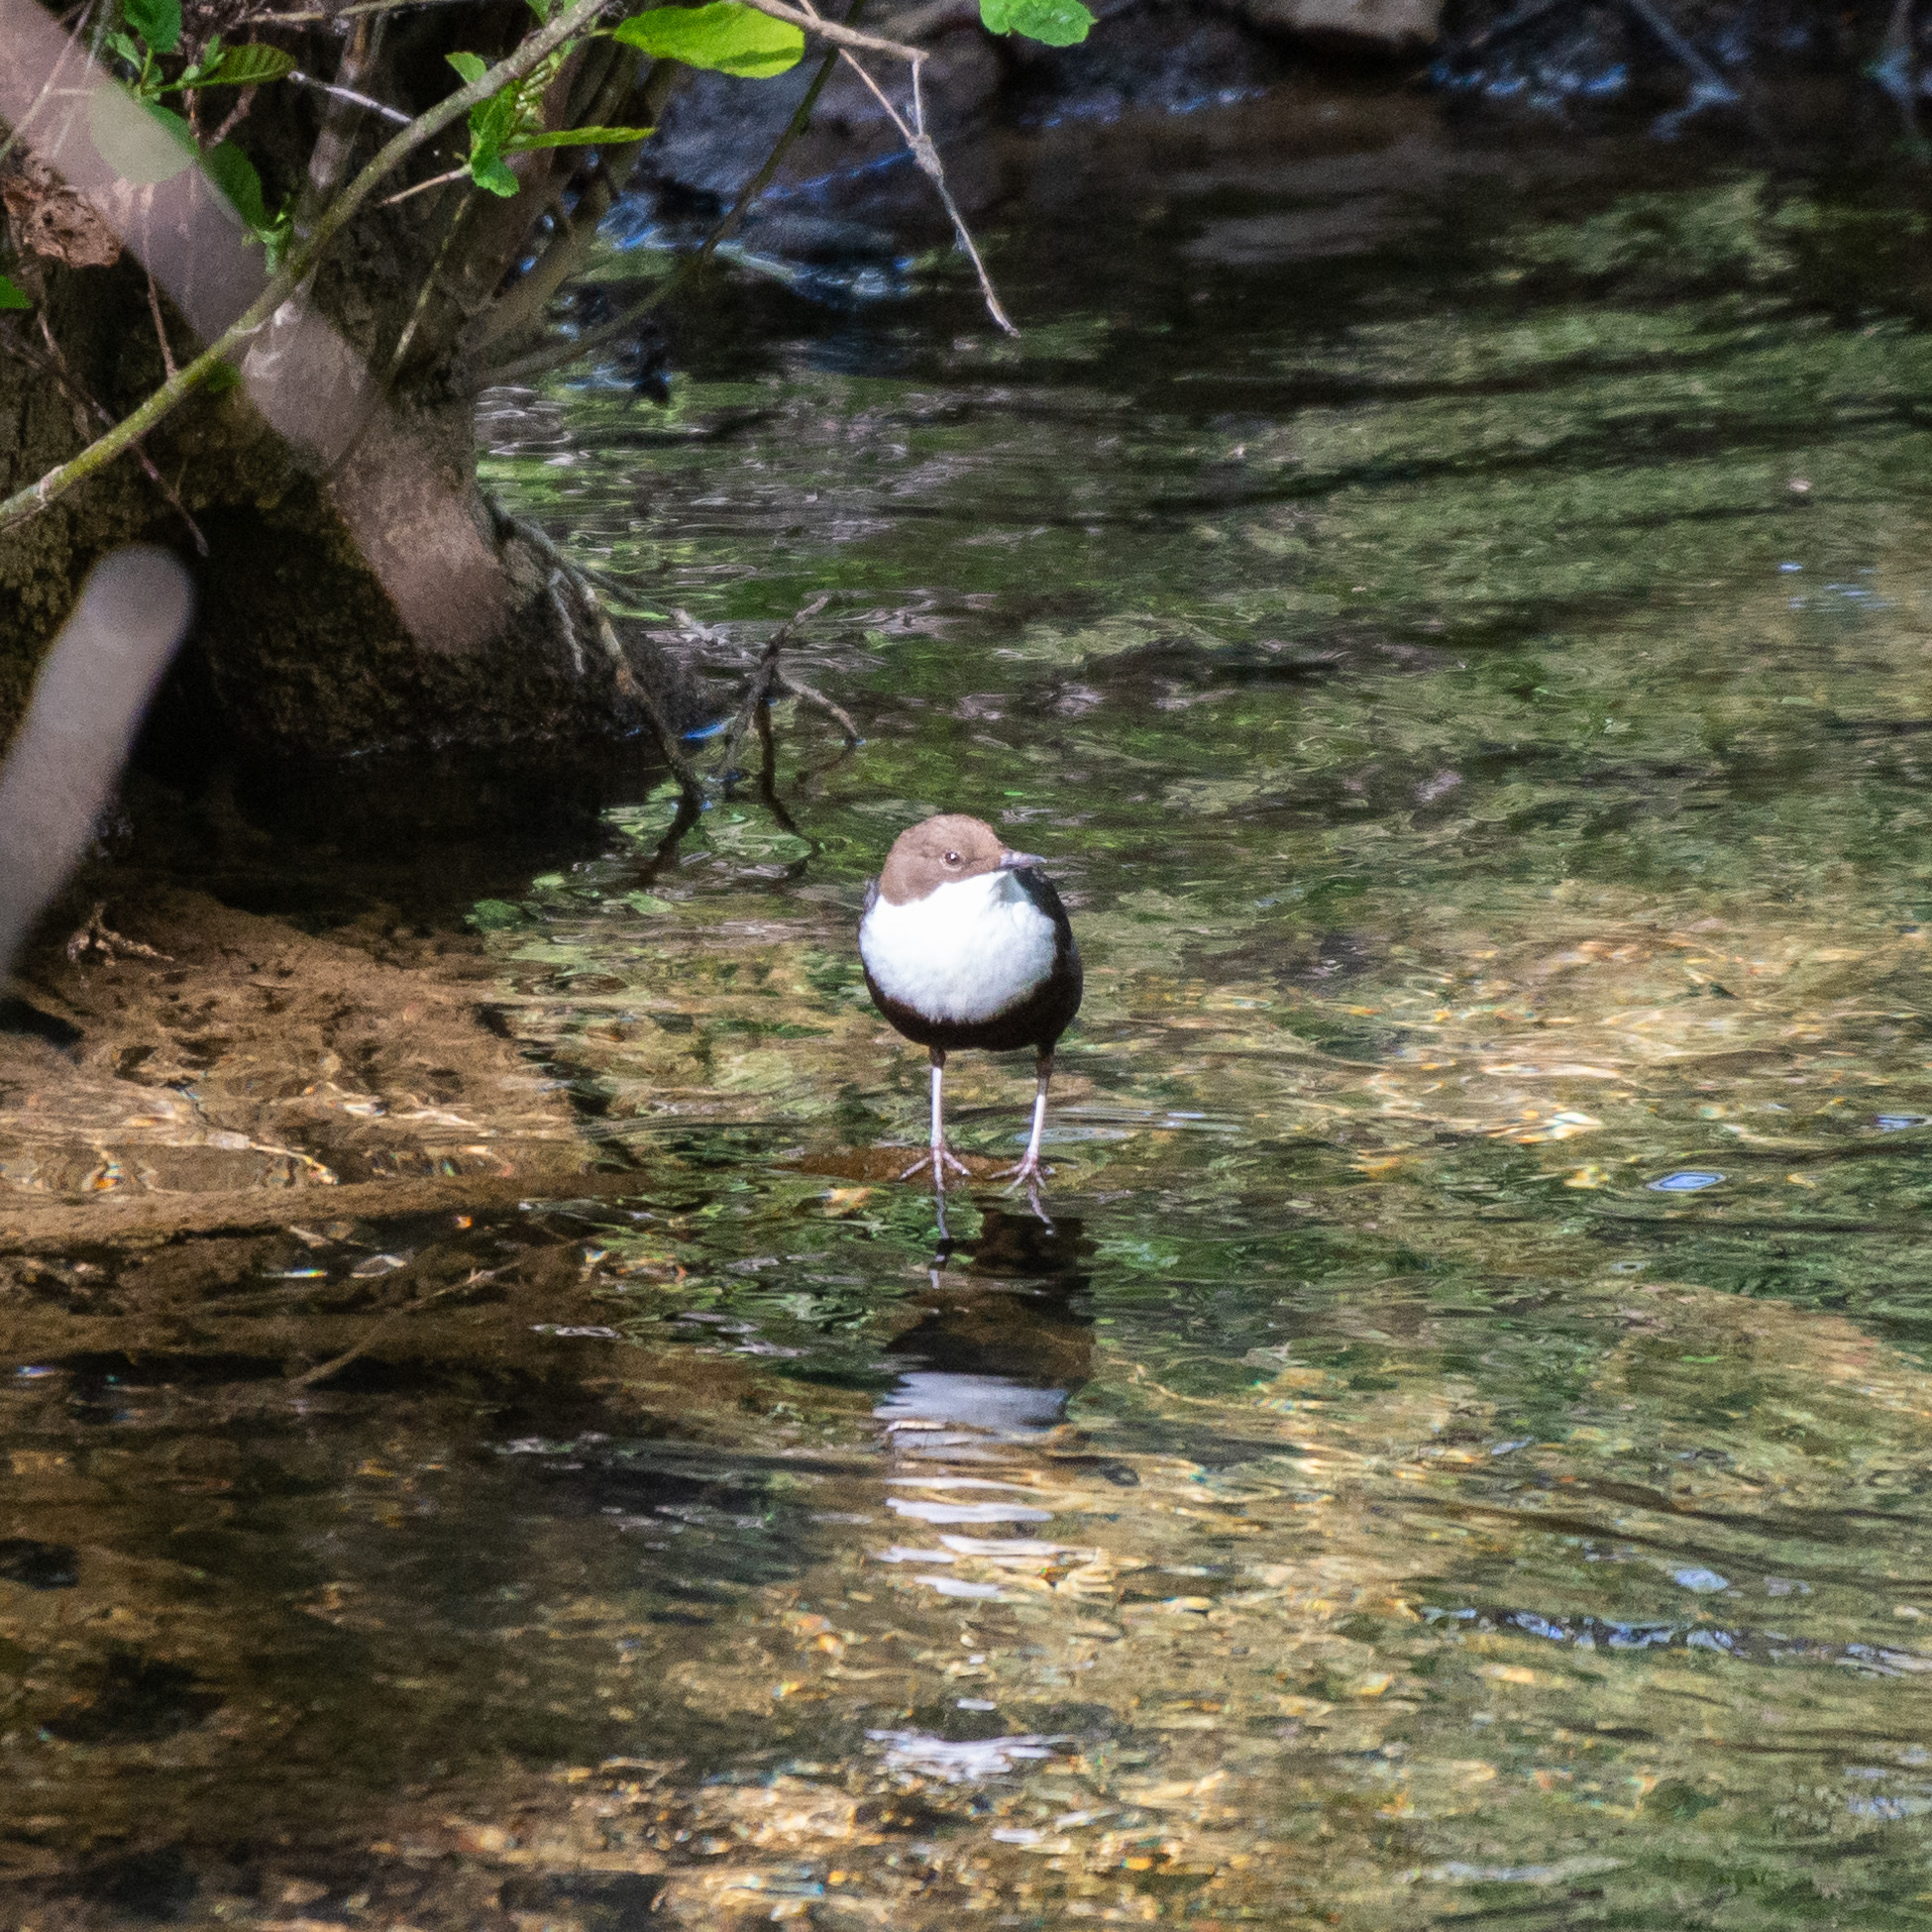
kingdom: Animalia
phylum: Chordata
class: Aves
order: Passeriformes
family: Cinclidae
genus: Cinclus
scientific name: Cinclus cinclus
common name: White-throated dipper
